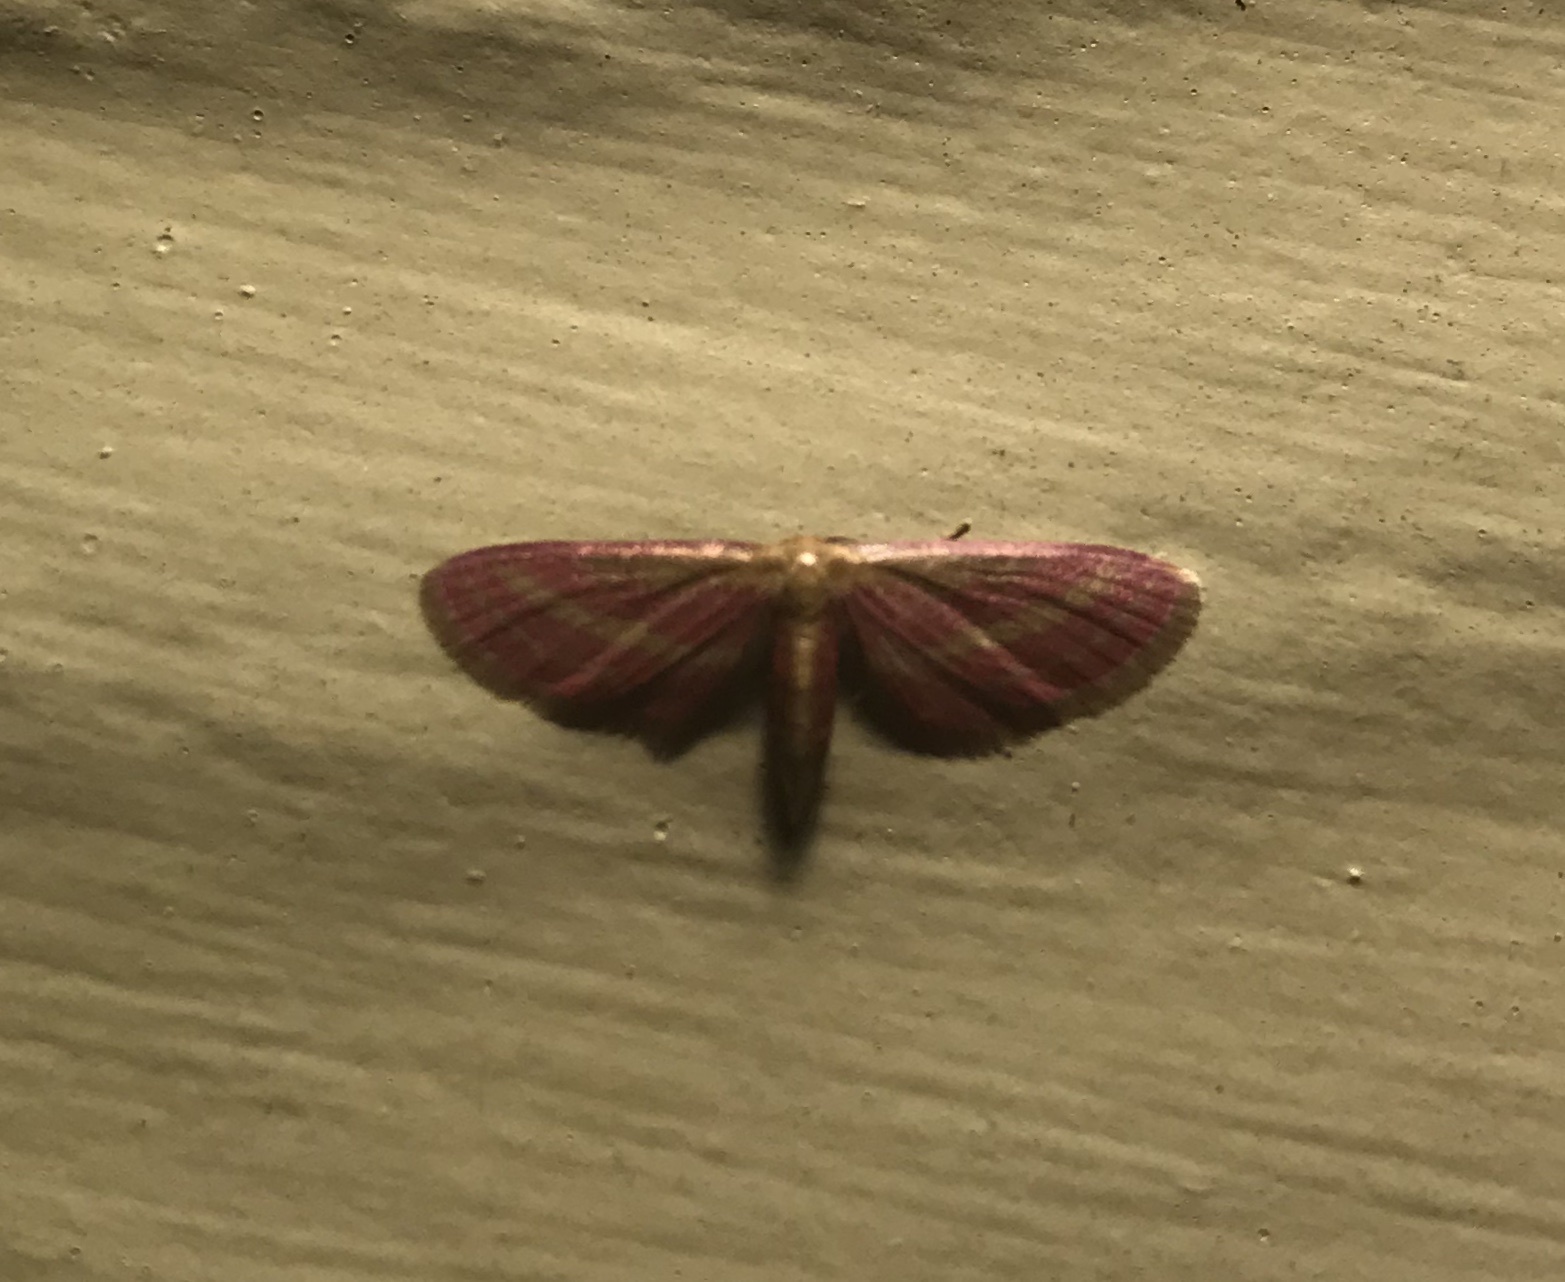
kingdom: Animalia
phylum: Arthropoda
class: Insecta
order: Lepidoptera
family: Geometridae
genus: Leptostales
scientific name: Leptostales laevitaria
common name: Raspberry wave moth
